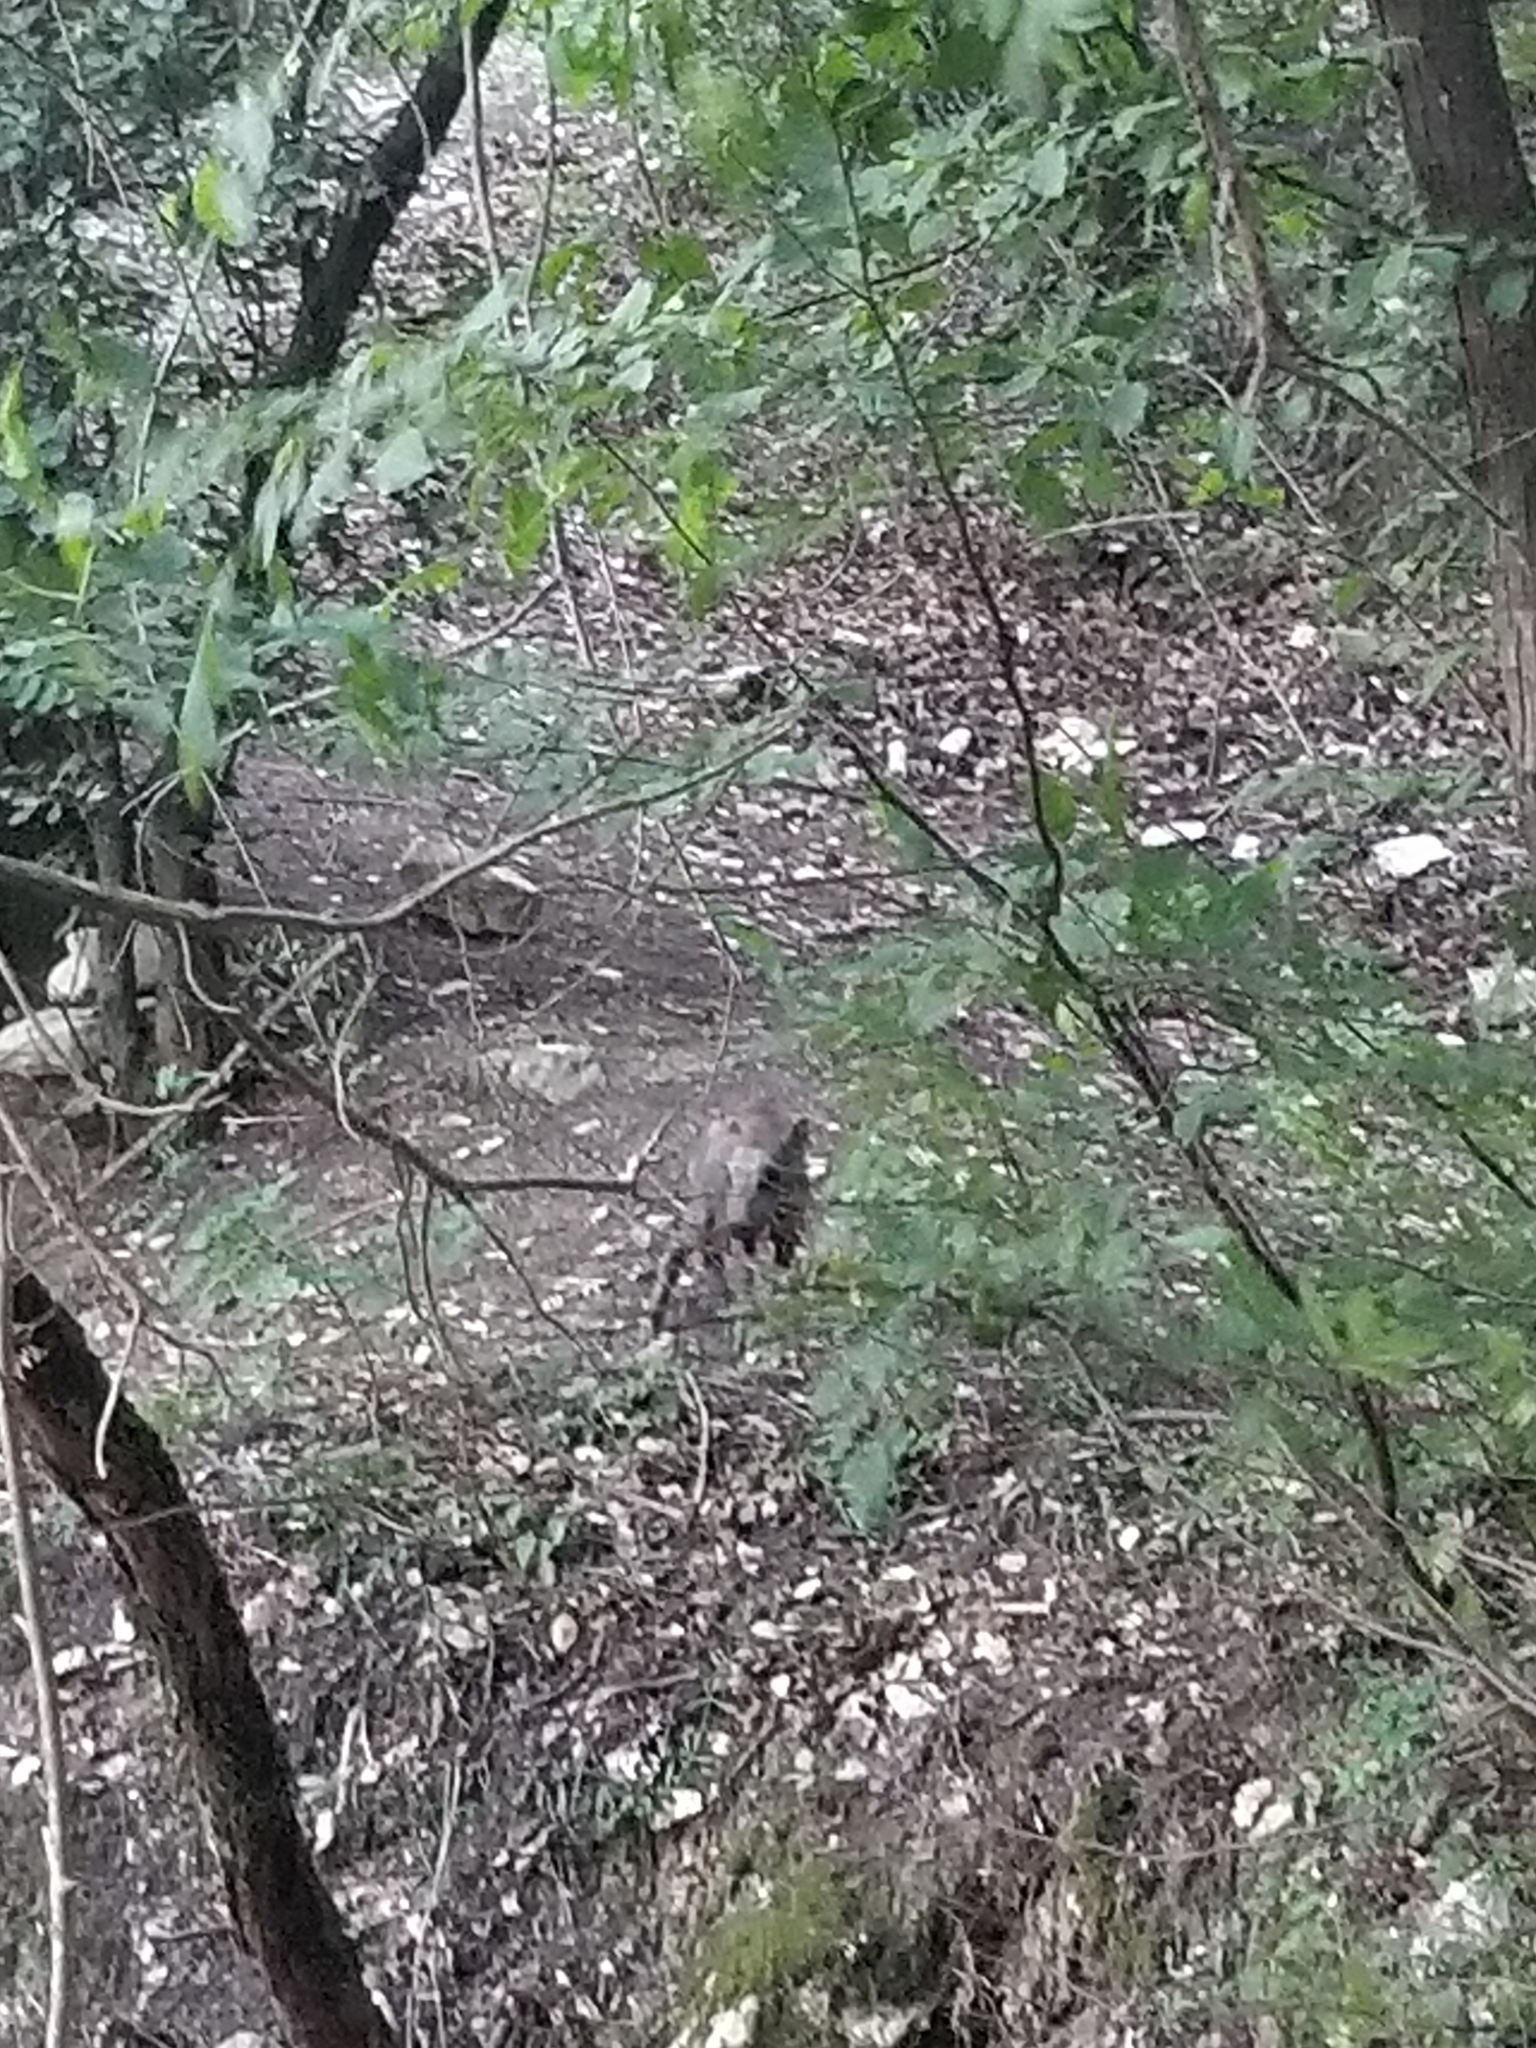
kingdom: Animalia
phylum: Chordata
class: Mammalia
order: Artiodactyla
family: Suidae
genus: Sus
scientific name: Sus scrofa
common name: Wild boar
